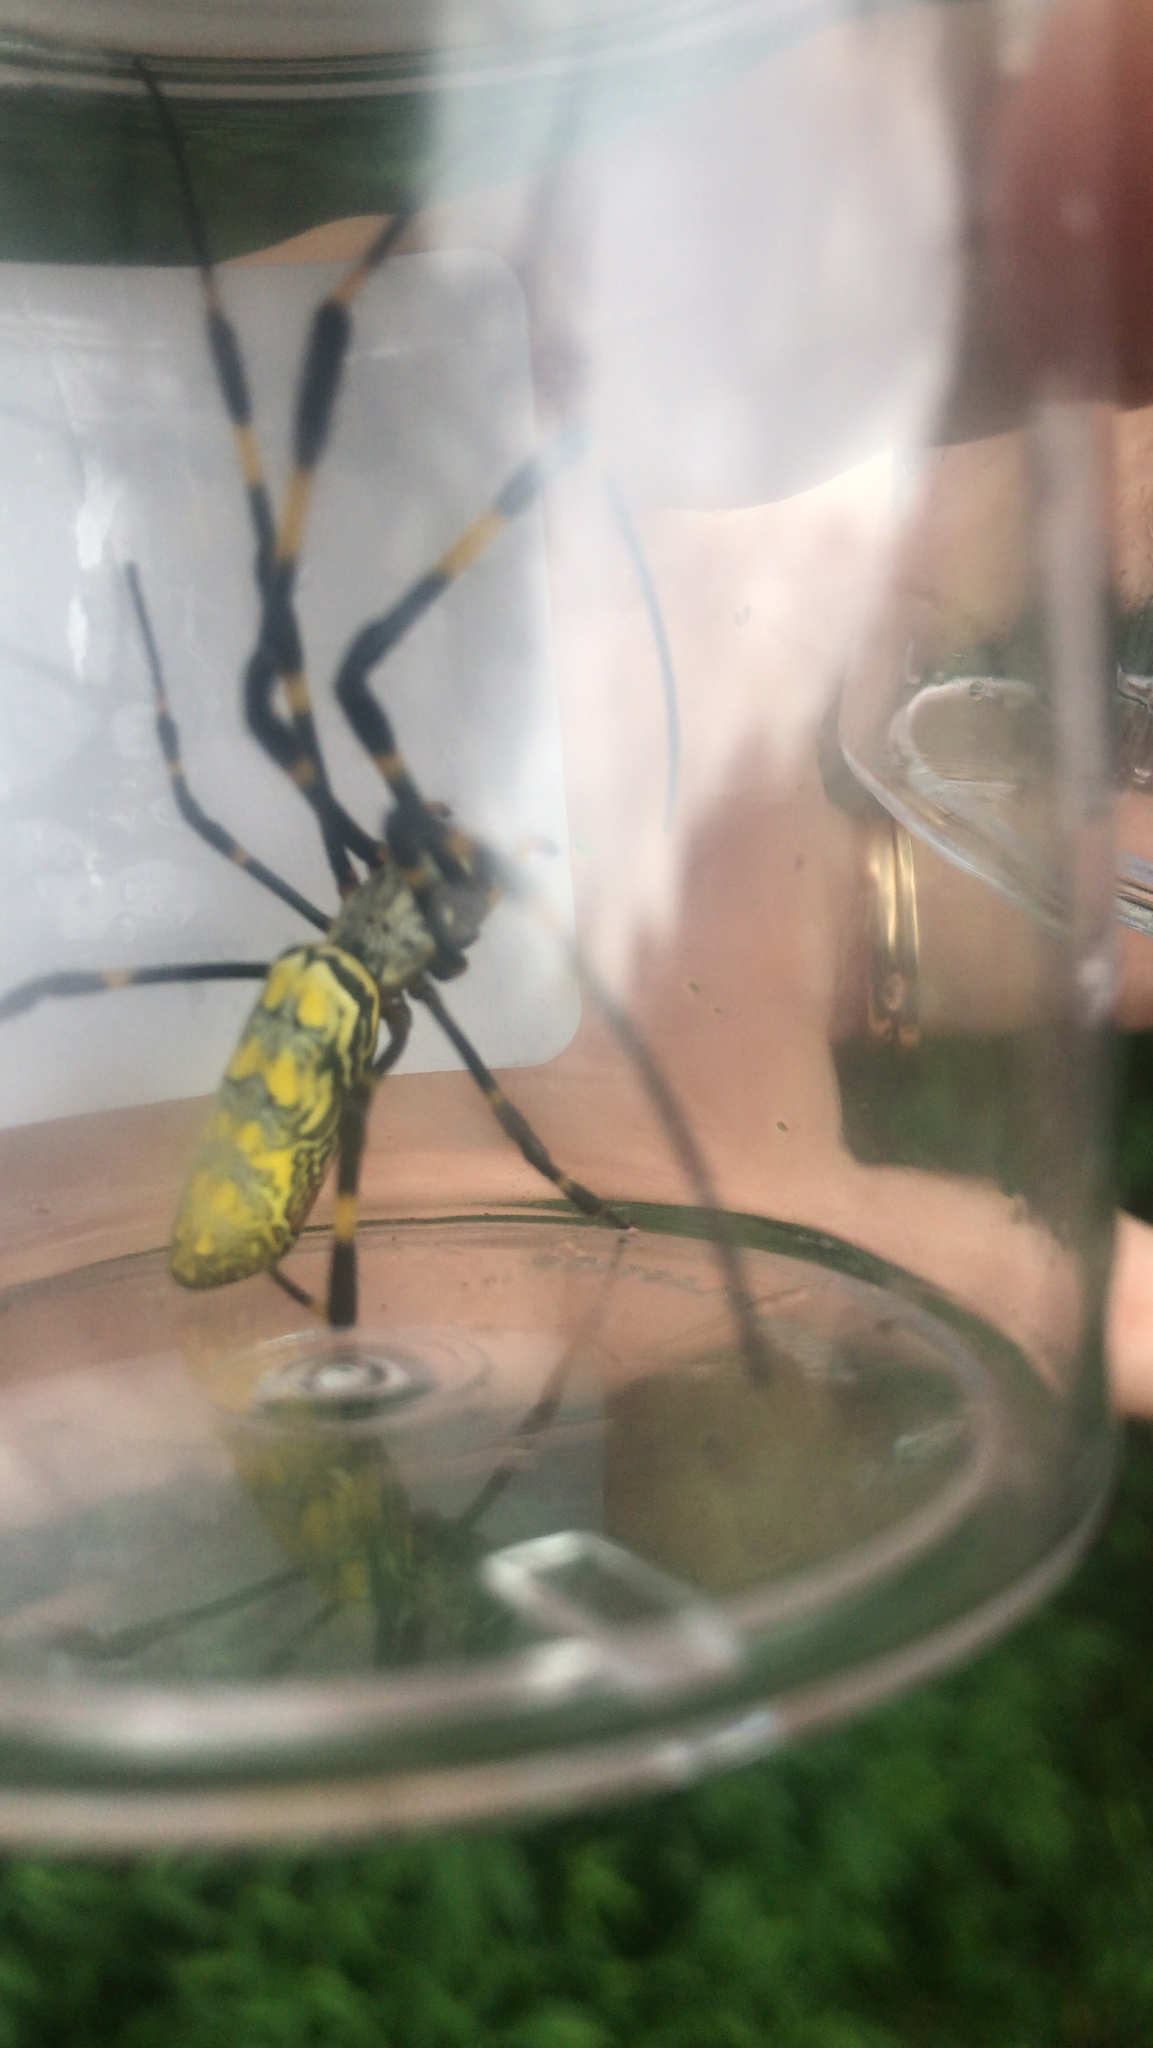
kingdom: Animalia
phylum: Arthropoda
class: Arachnida
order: Araneae
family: Araneidae
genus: Trichonephila
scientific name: Trichonephila clavata
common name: Jorō spider
